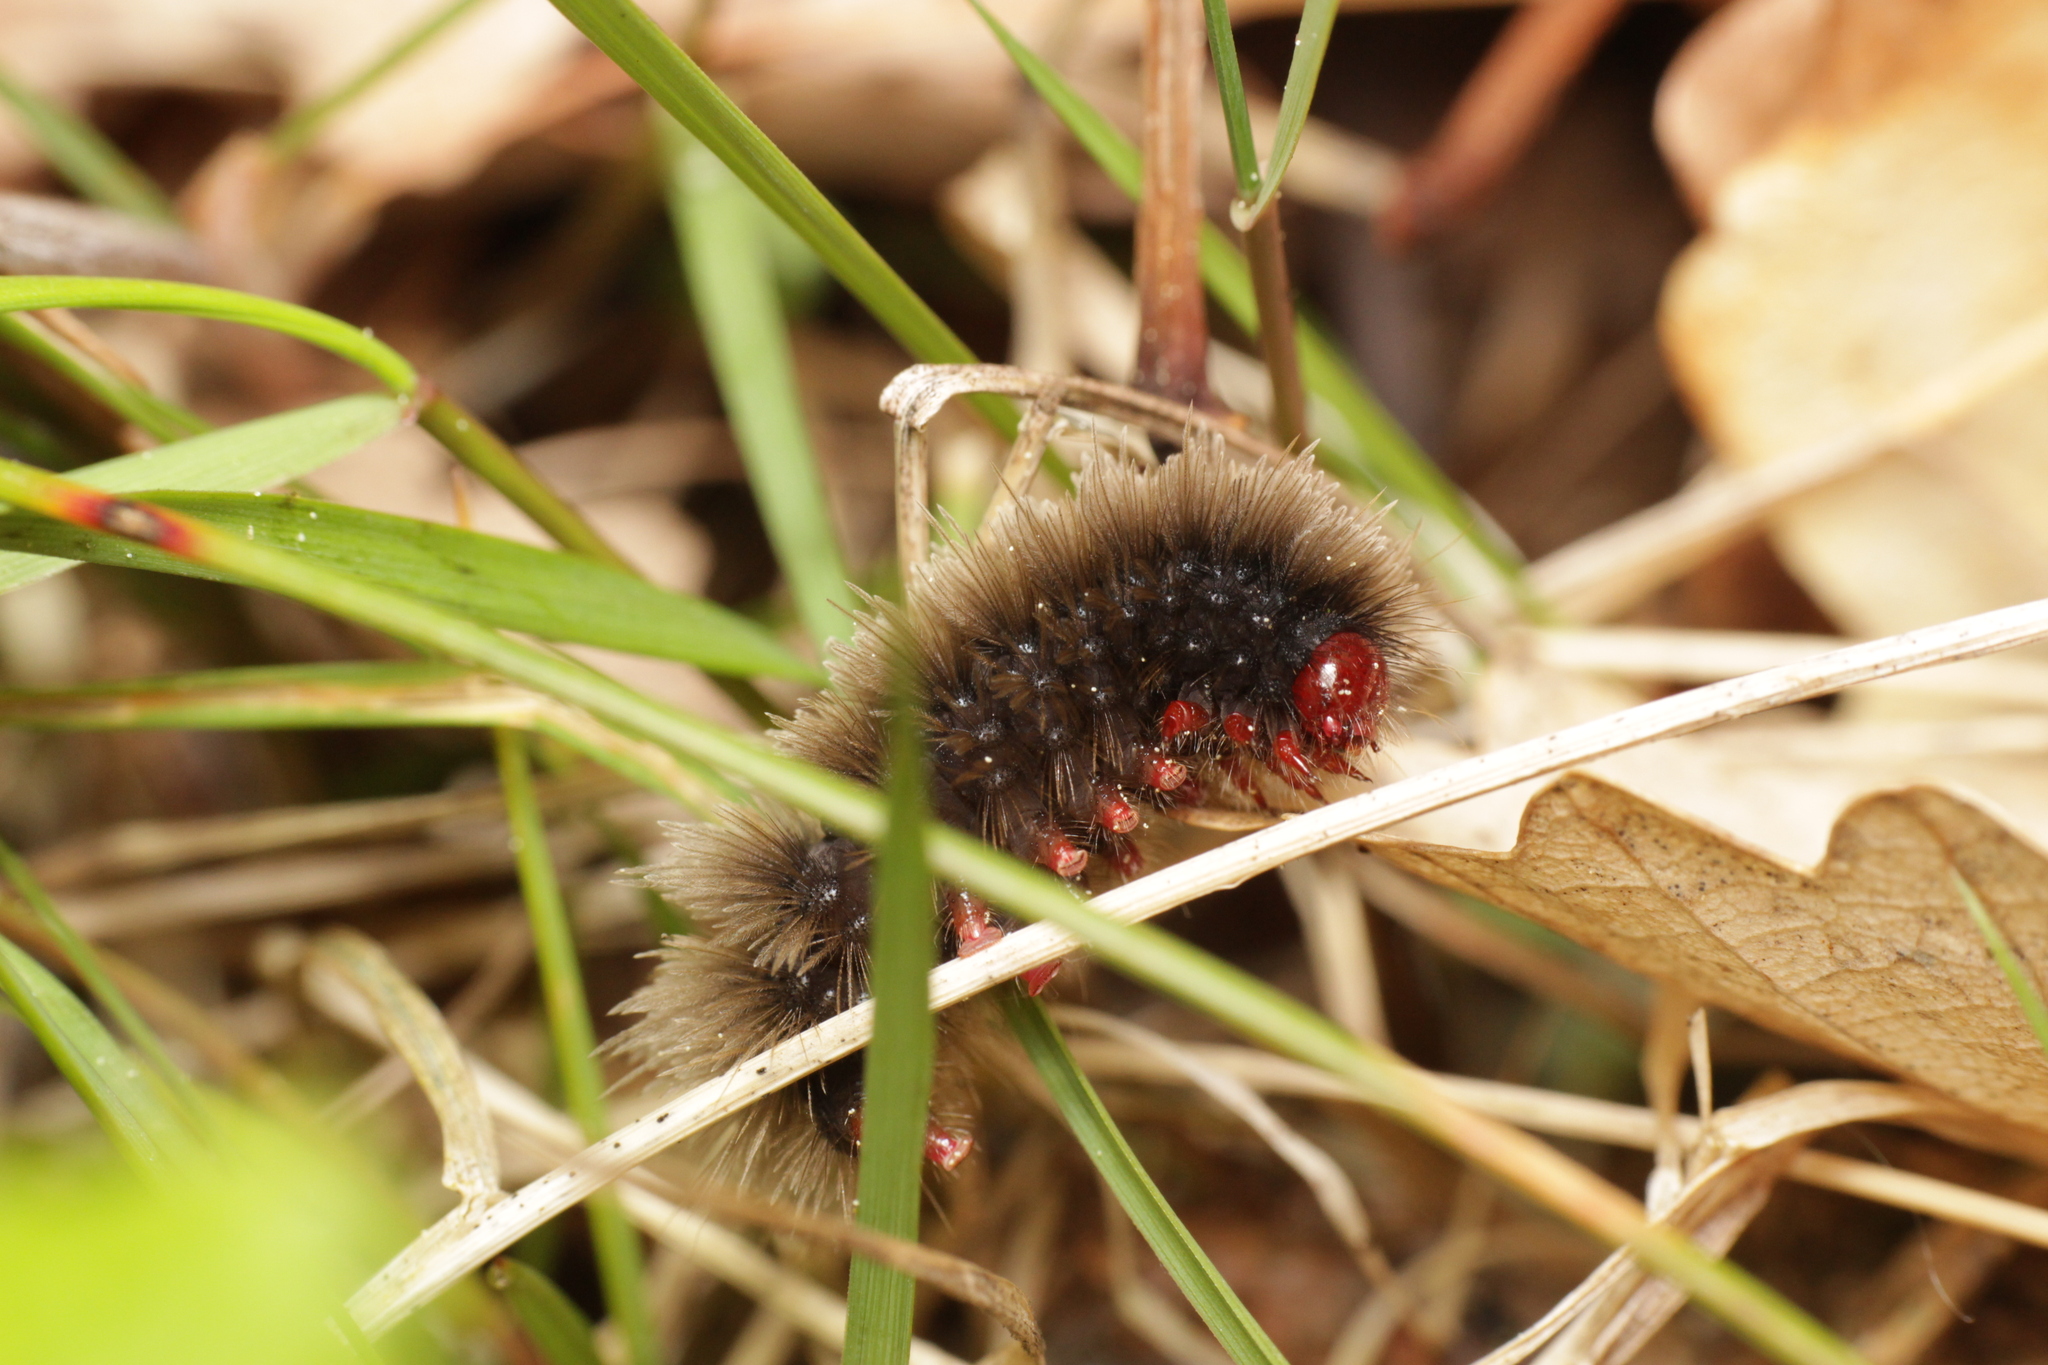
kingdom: Animalia
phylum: Arthropoda
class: Insecta
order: Lepidoptera
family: Erebidae
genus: Amata
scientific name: Amata phegea
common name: Nine-spotted
